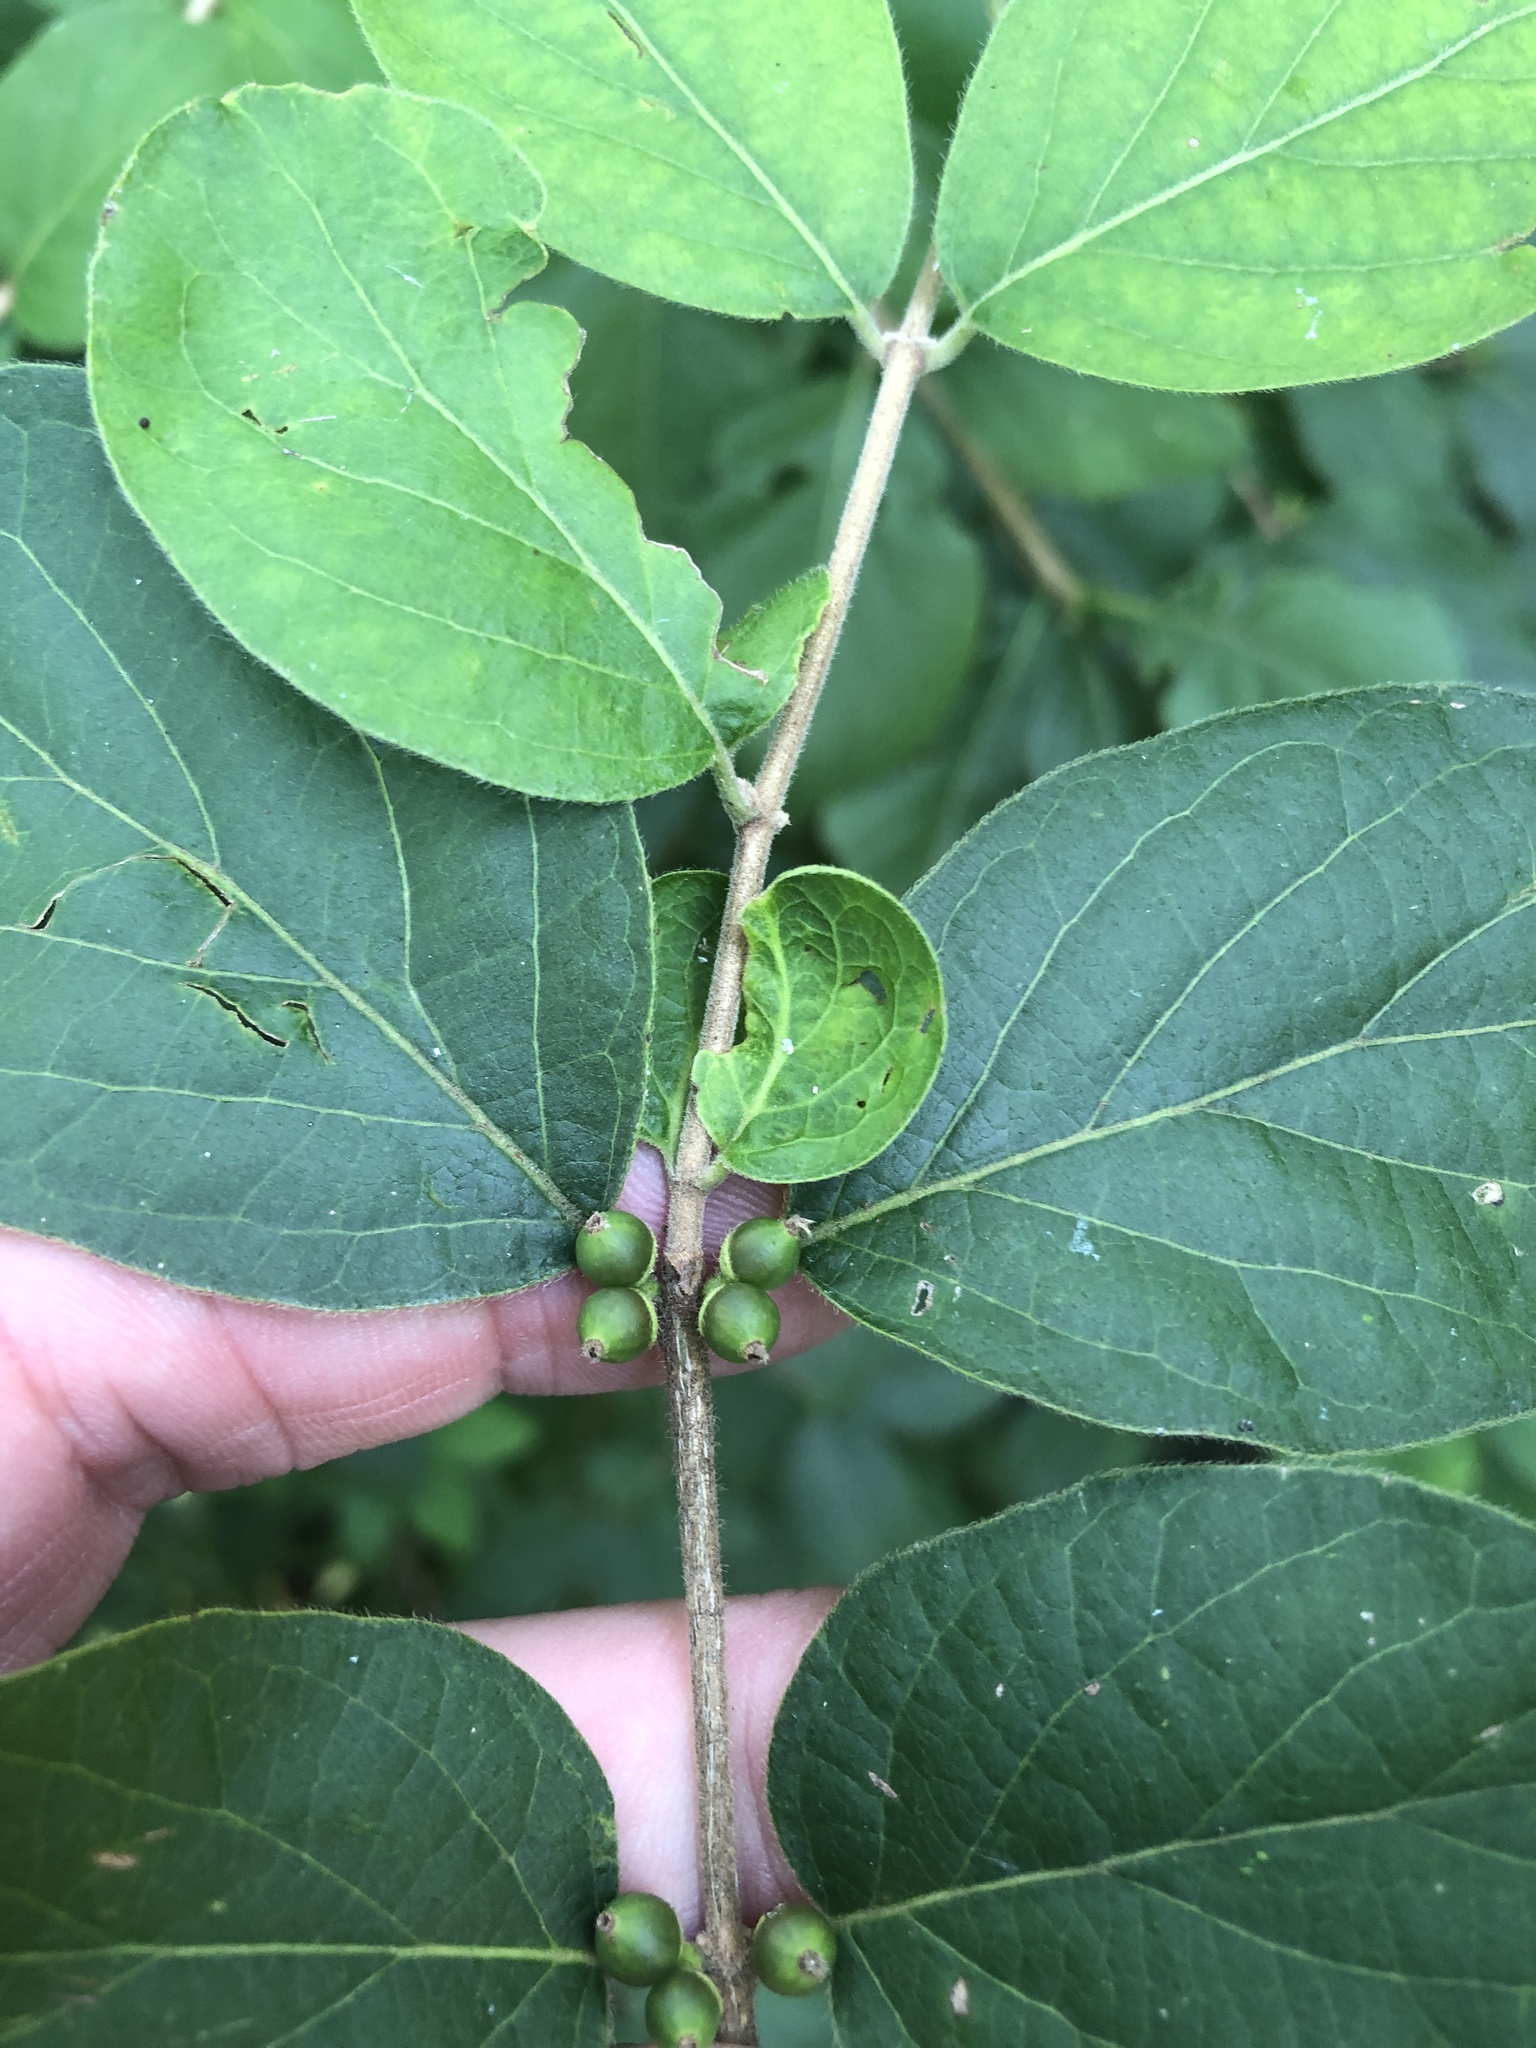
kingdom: Plantae
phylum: Tracheophyta
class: Magnoliopsida
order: Dipsacales
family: Caprifoliaceae
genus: Lonicera
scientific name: Lonicera maackii
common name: Amur honeysuckle
